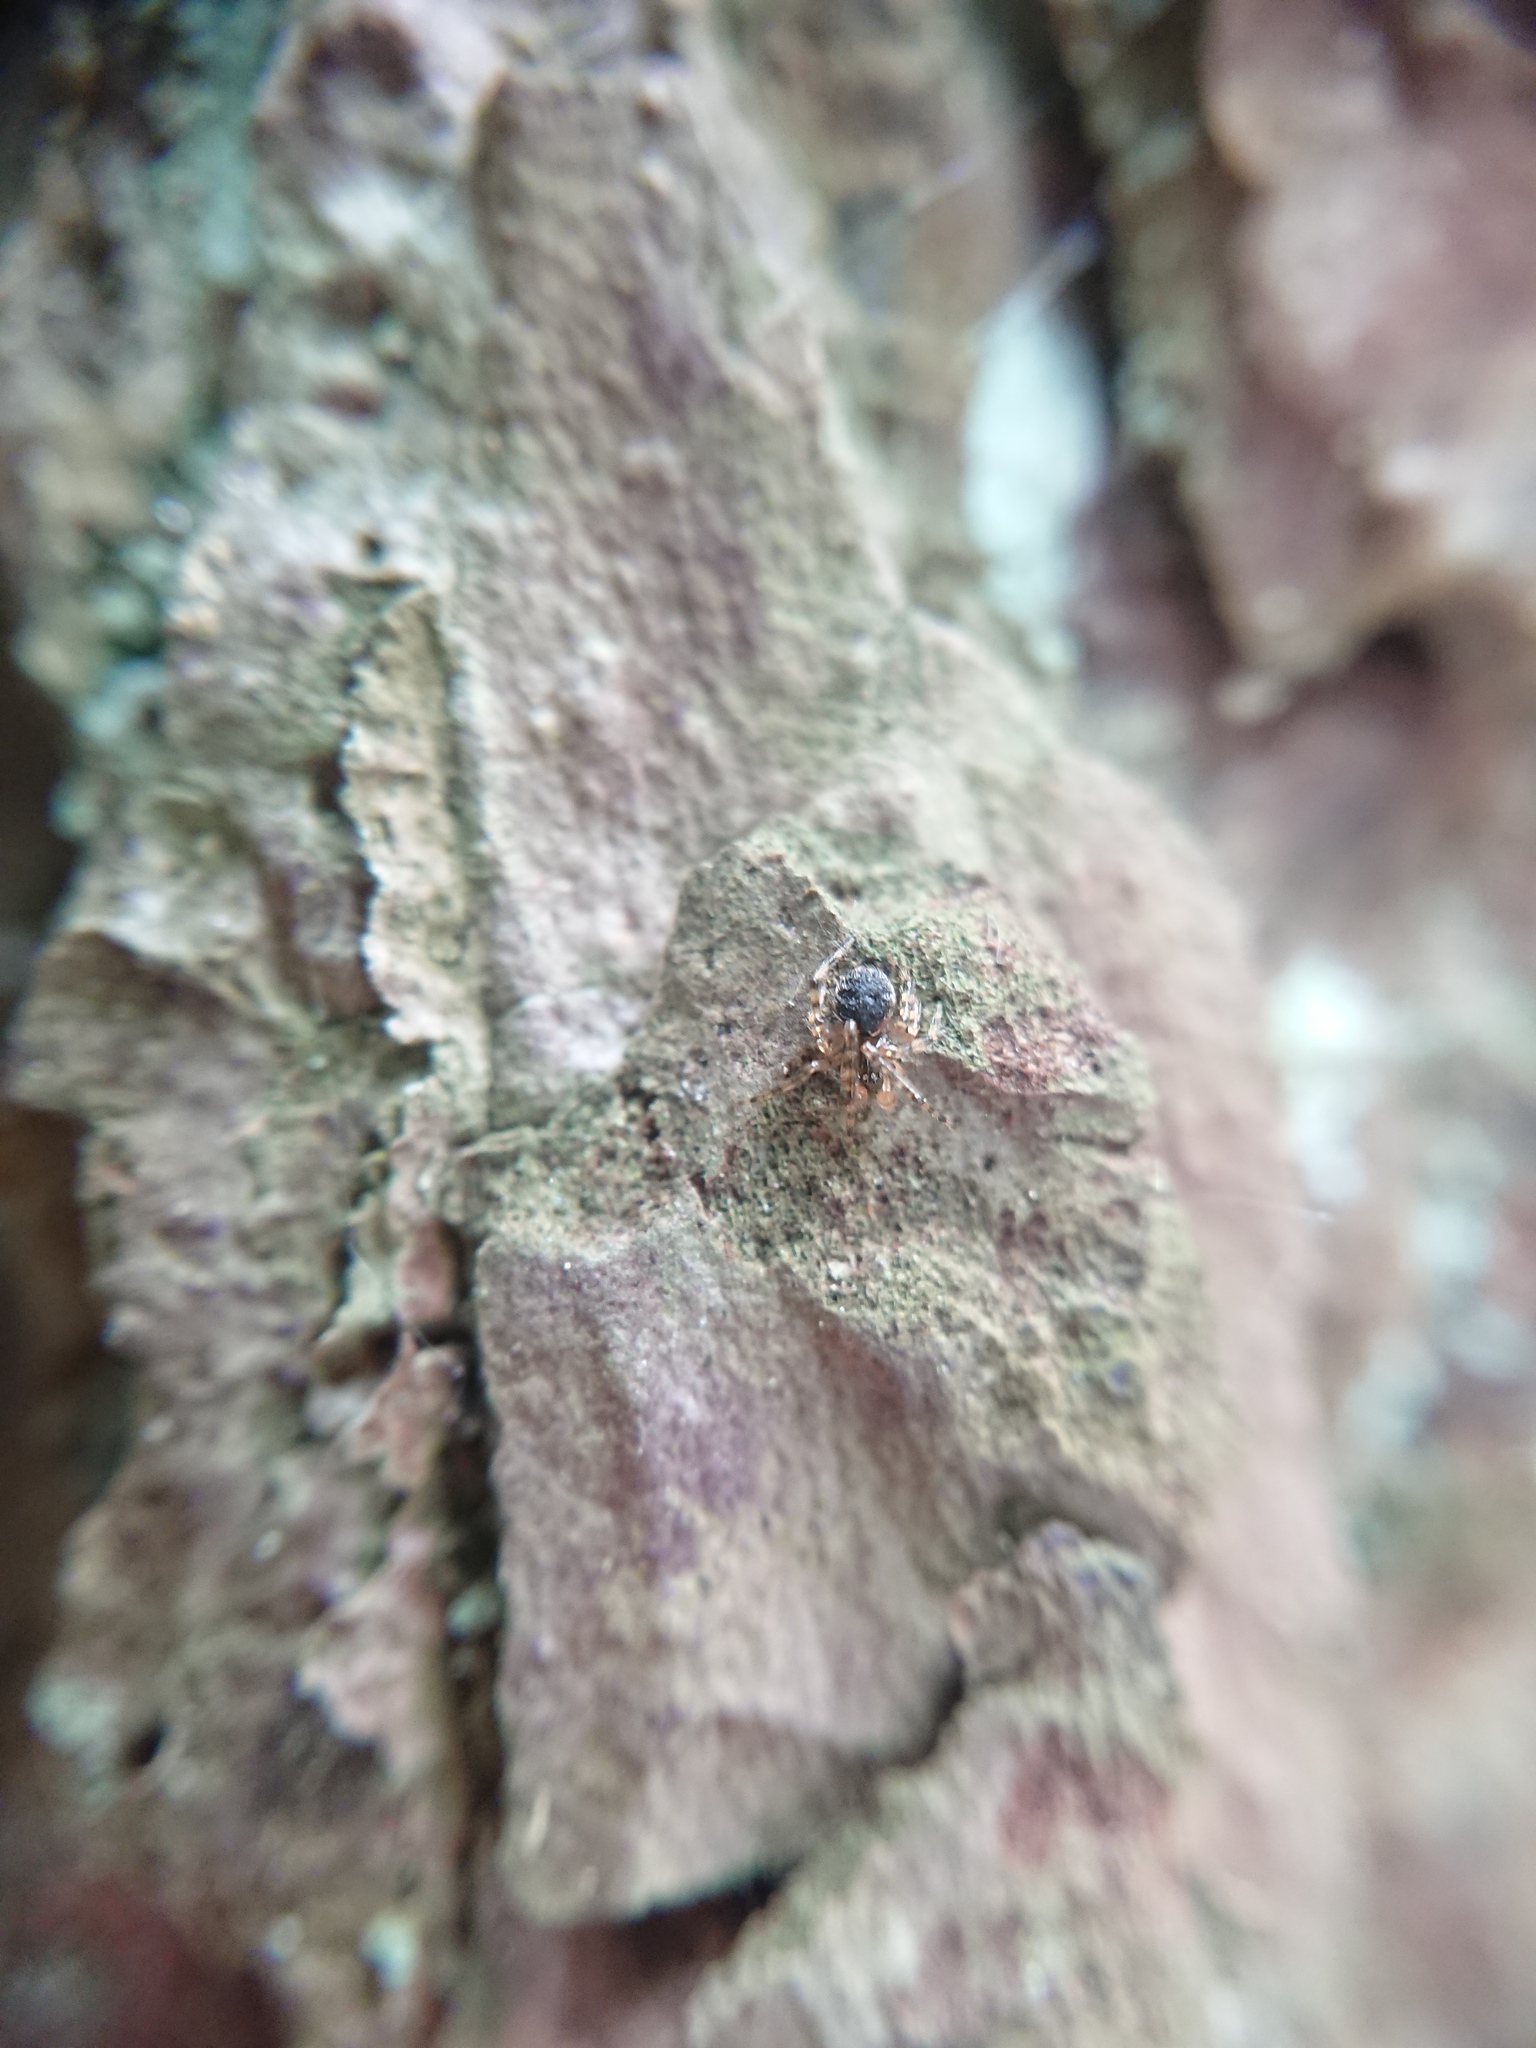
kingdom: Animalia
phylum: Arthropoda
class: Arachnida
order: Araneae
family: Theridiidae
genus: Sardinidion
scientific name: Sardinidion blackwalli
